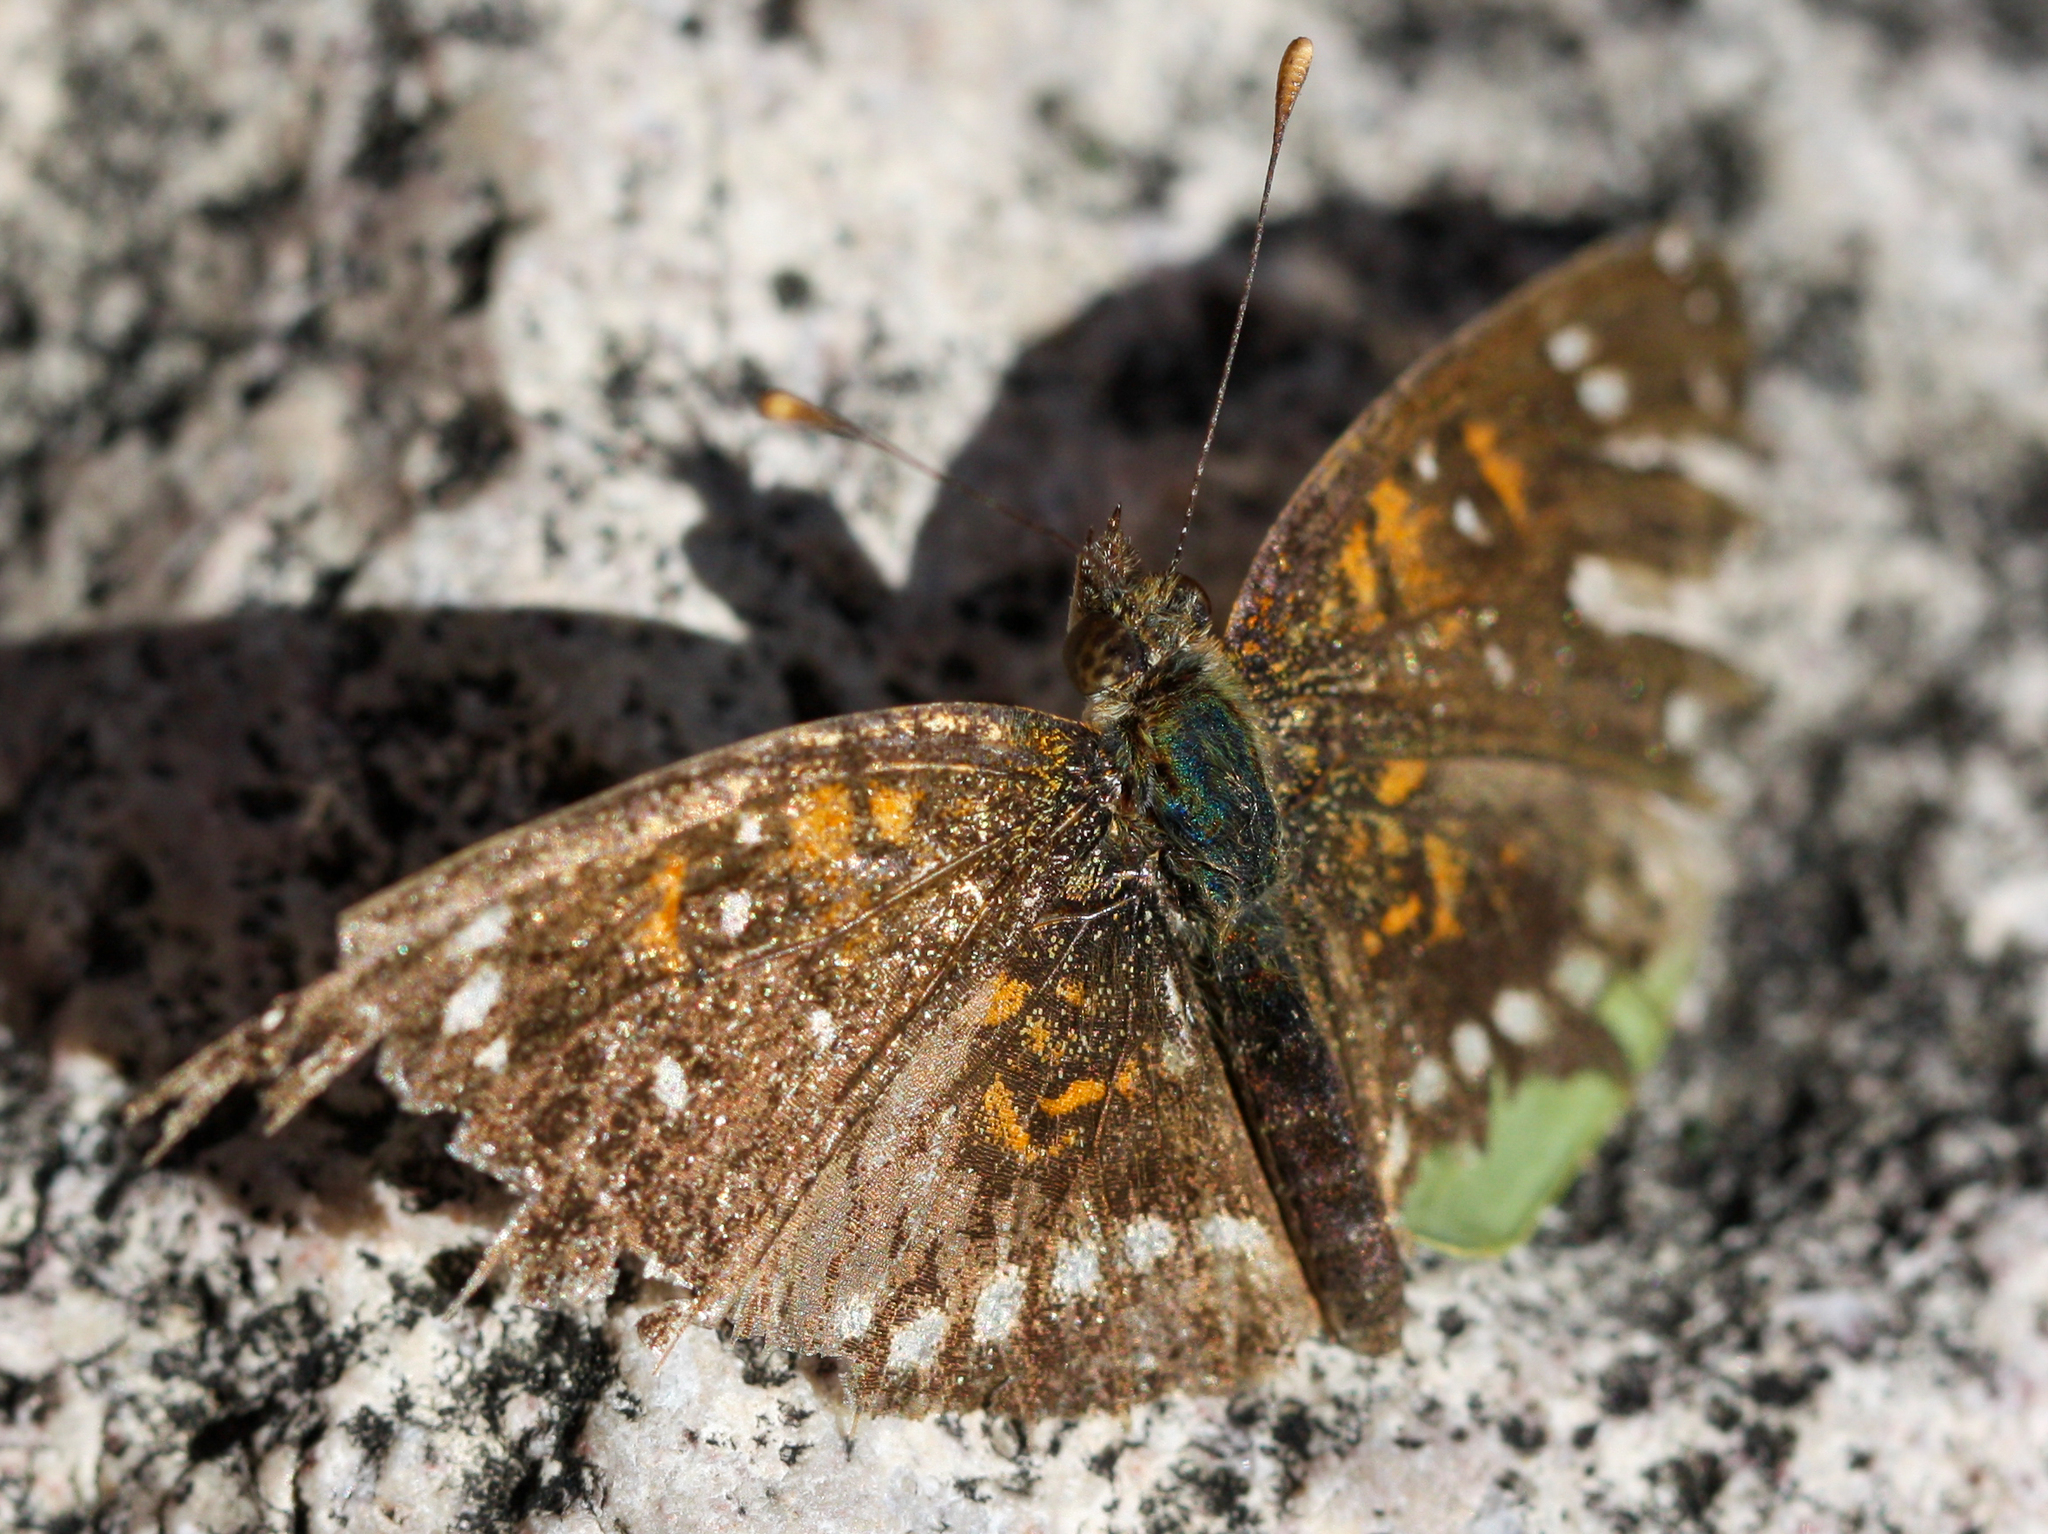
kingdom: Animalia
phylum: Arthropoda
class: Insecta
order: Lepidoptera
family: Nymphalidae
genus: Anthanassa
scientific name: Anthanassa texana
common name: Texan crescent
